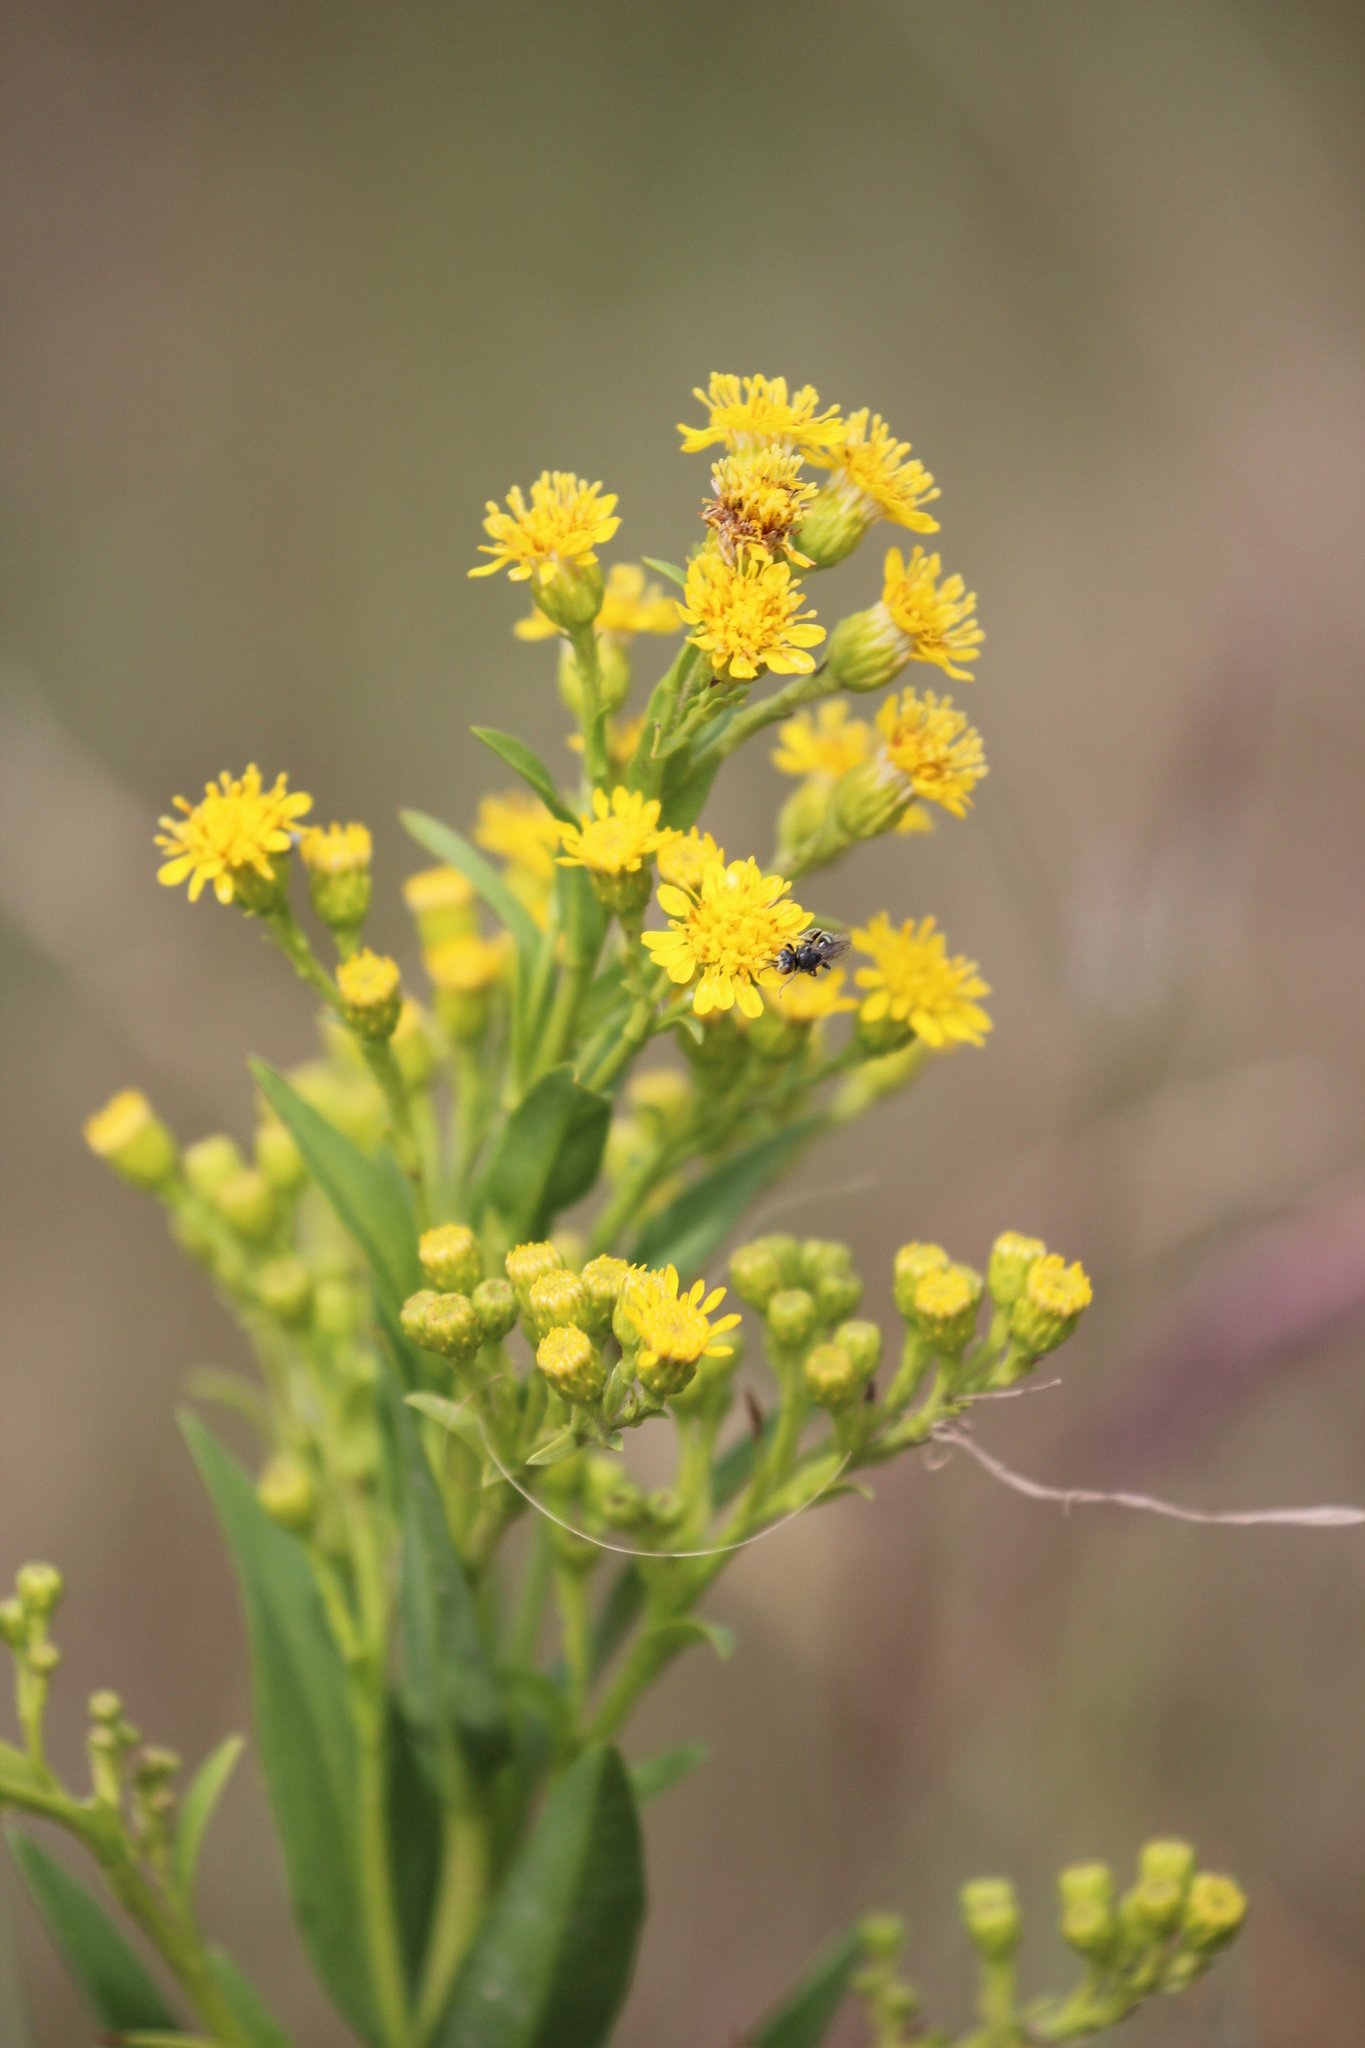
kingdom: Plantae
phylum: Tracheophyta
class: Magnoliopsida
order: Asterales
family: Asteraceae
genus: Solidago
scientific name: Solidago sempervirens
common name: Salt-marsh goldenrod
